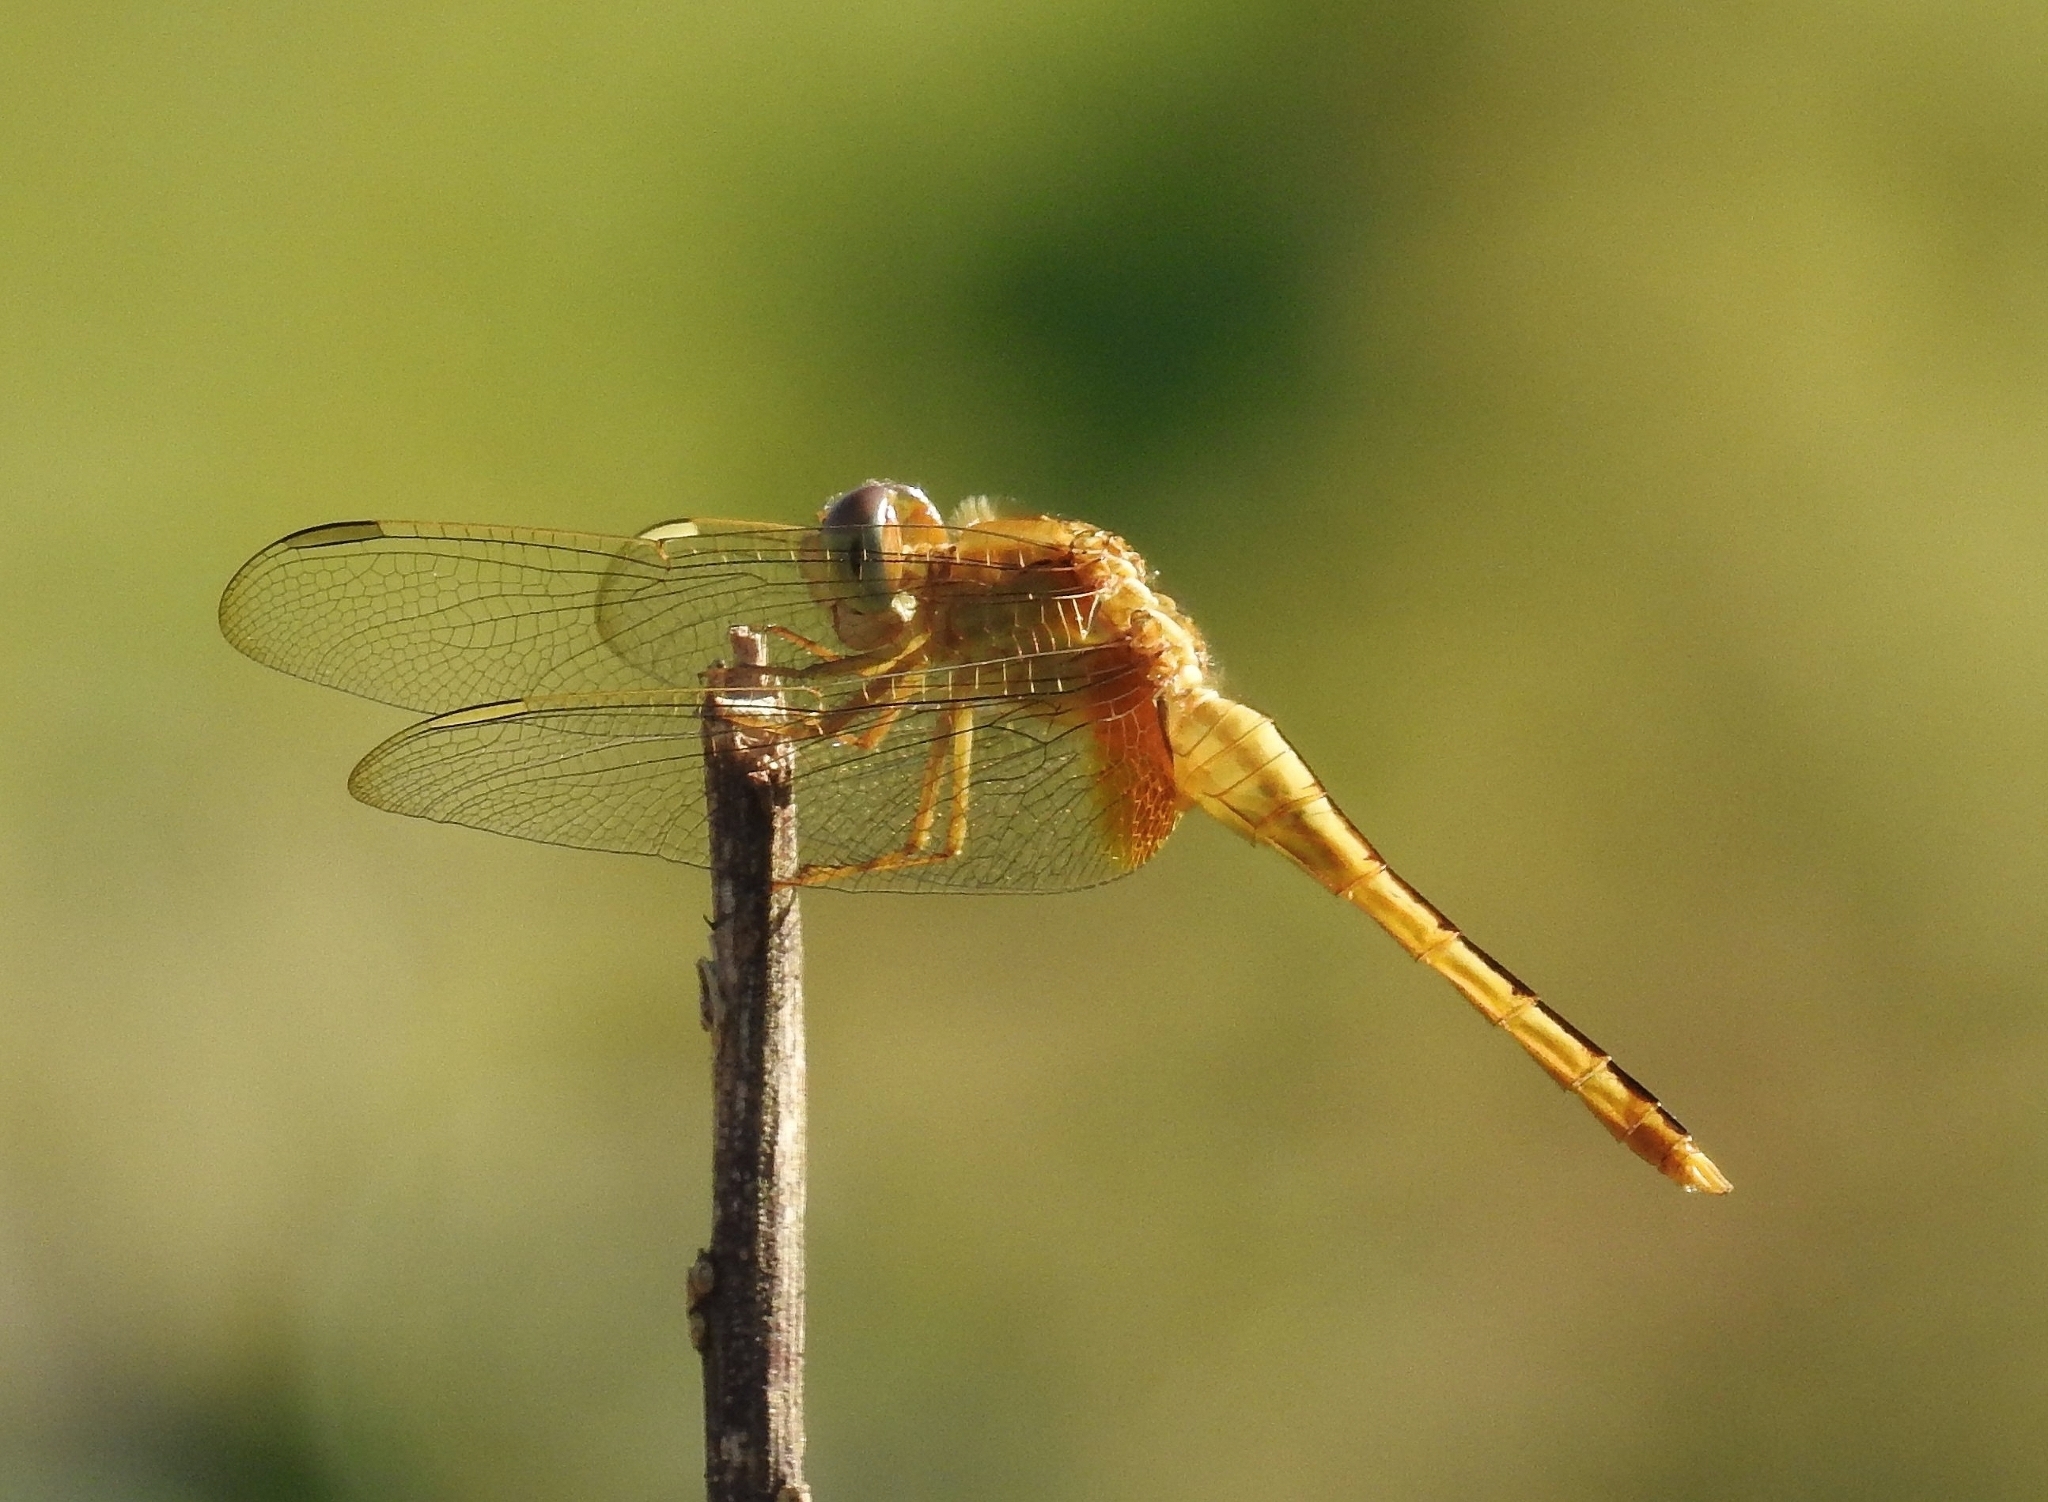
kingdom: Animalia
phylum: Arthropoda
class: Insecta
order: Odonata
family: Libellulidae
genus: Crocothemis
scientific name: Crocothemis servilia
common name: Scarlet skimmer
